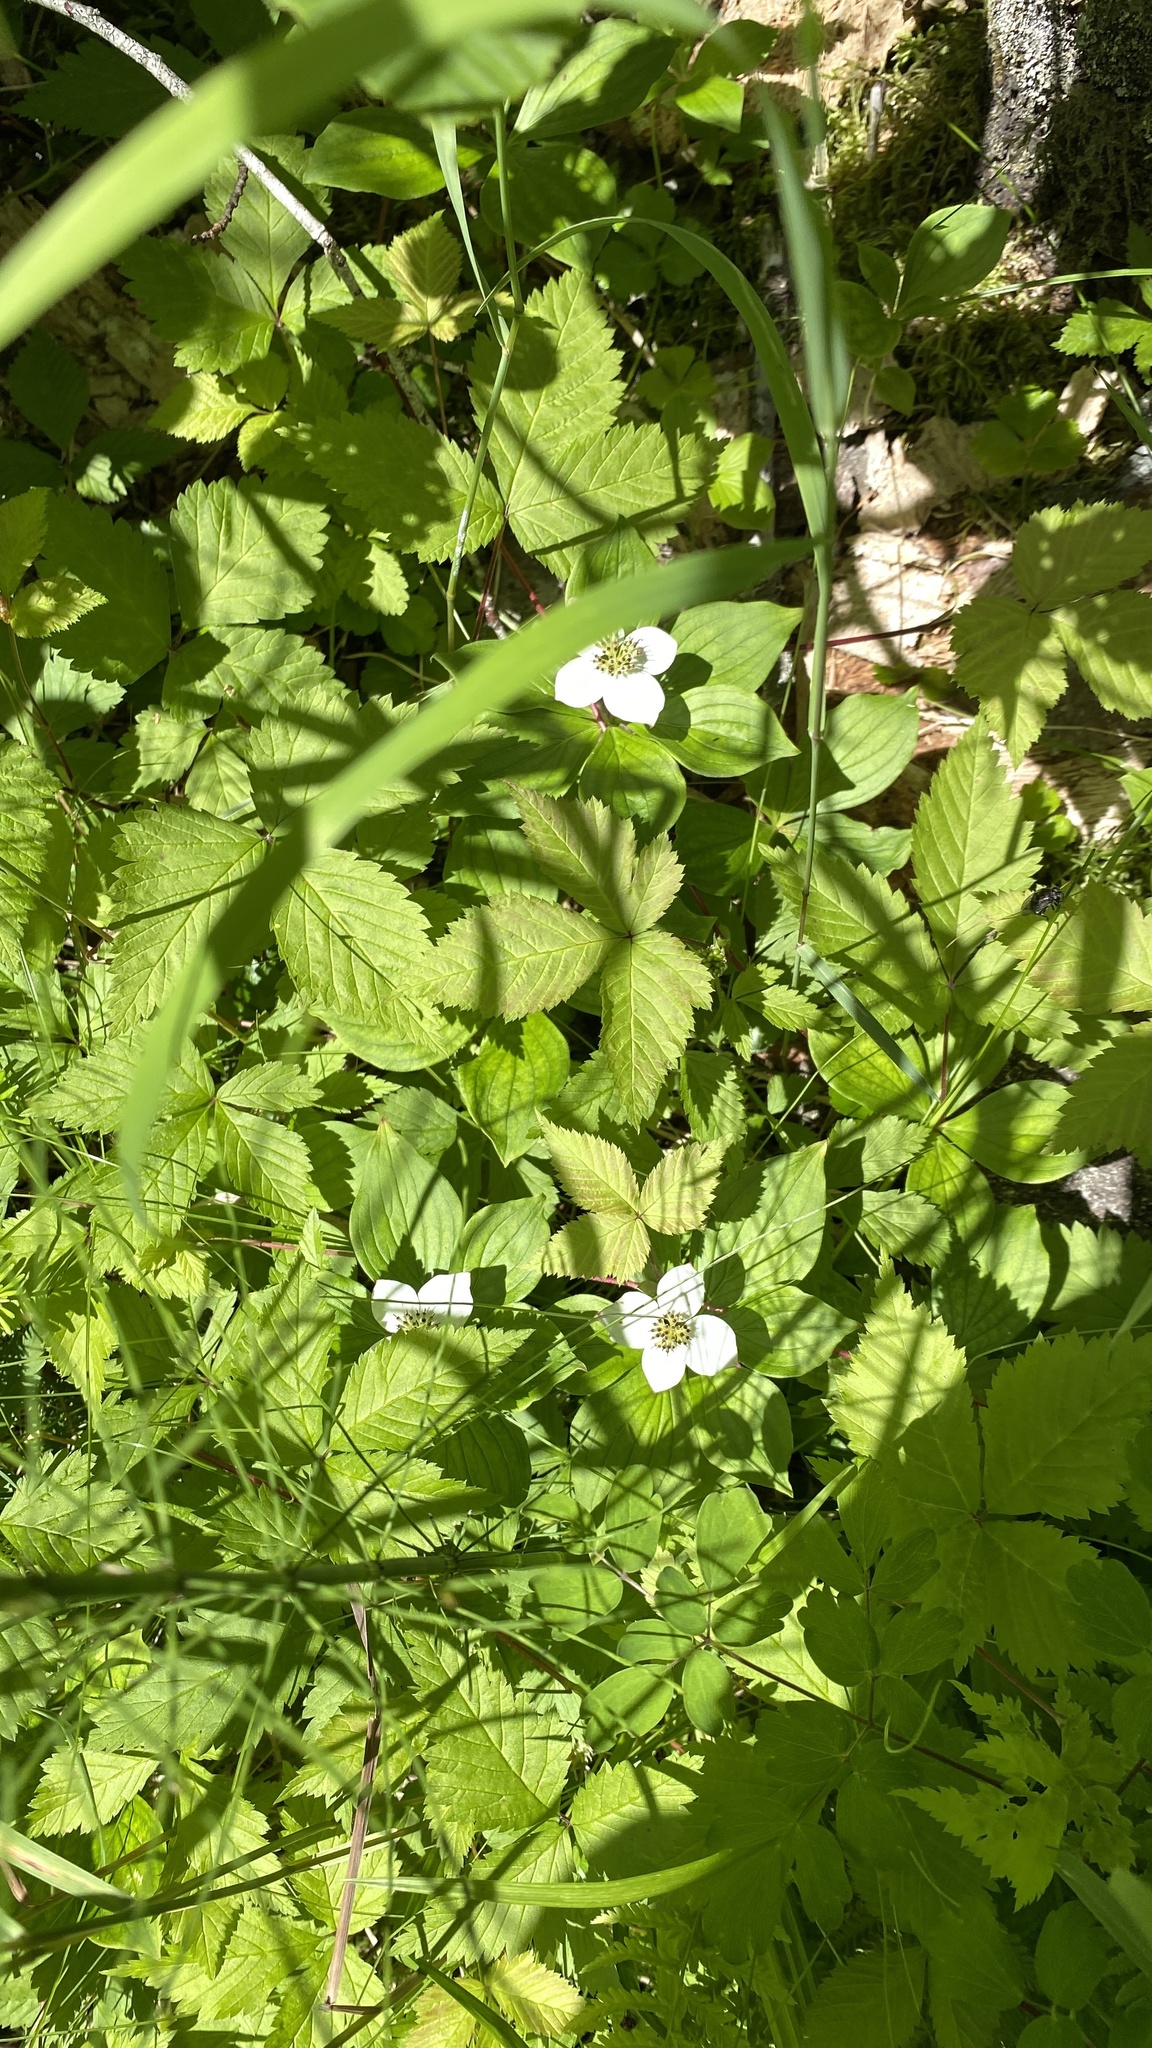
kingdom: Plantae
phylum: Tracheophyta
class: Magnoliopsida
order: Cornales
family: Cornaceae
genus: Cornus
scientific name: Cornus canadensis
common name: Creeping dogwood
